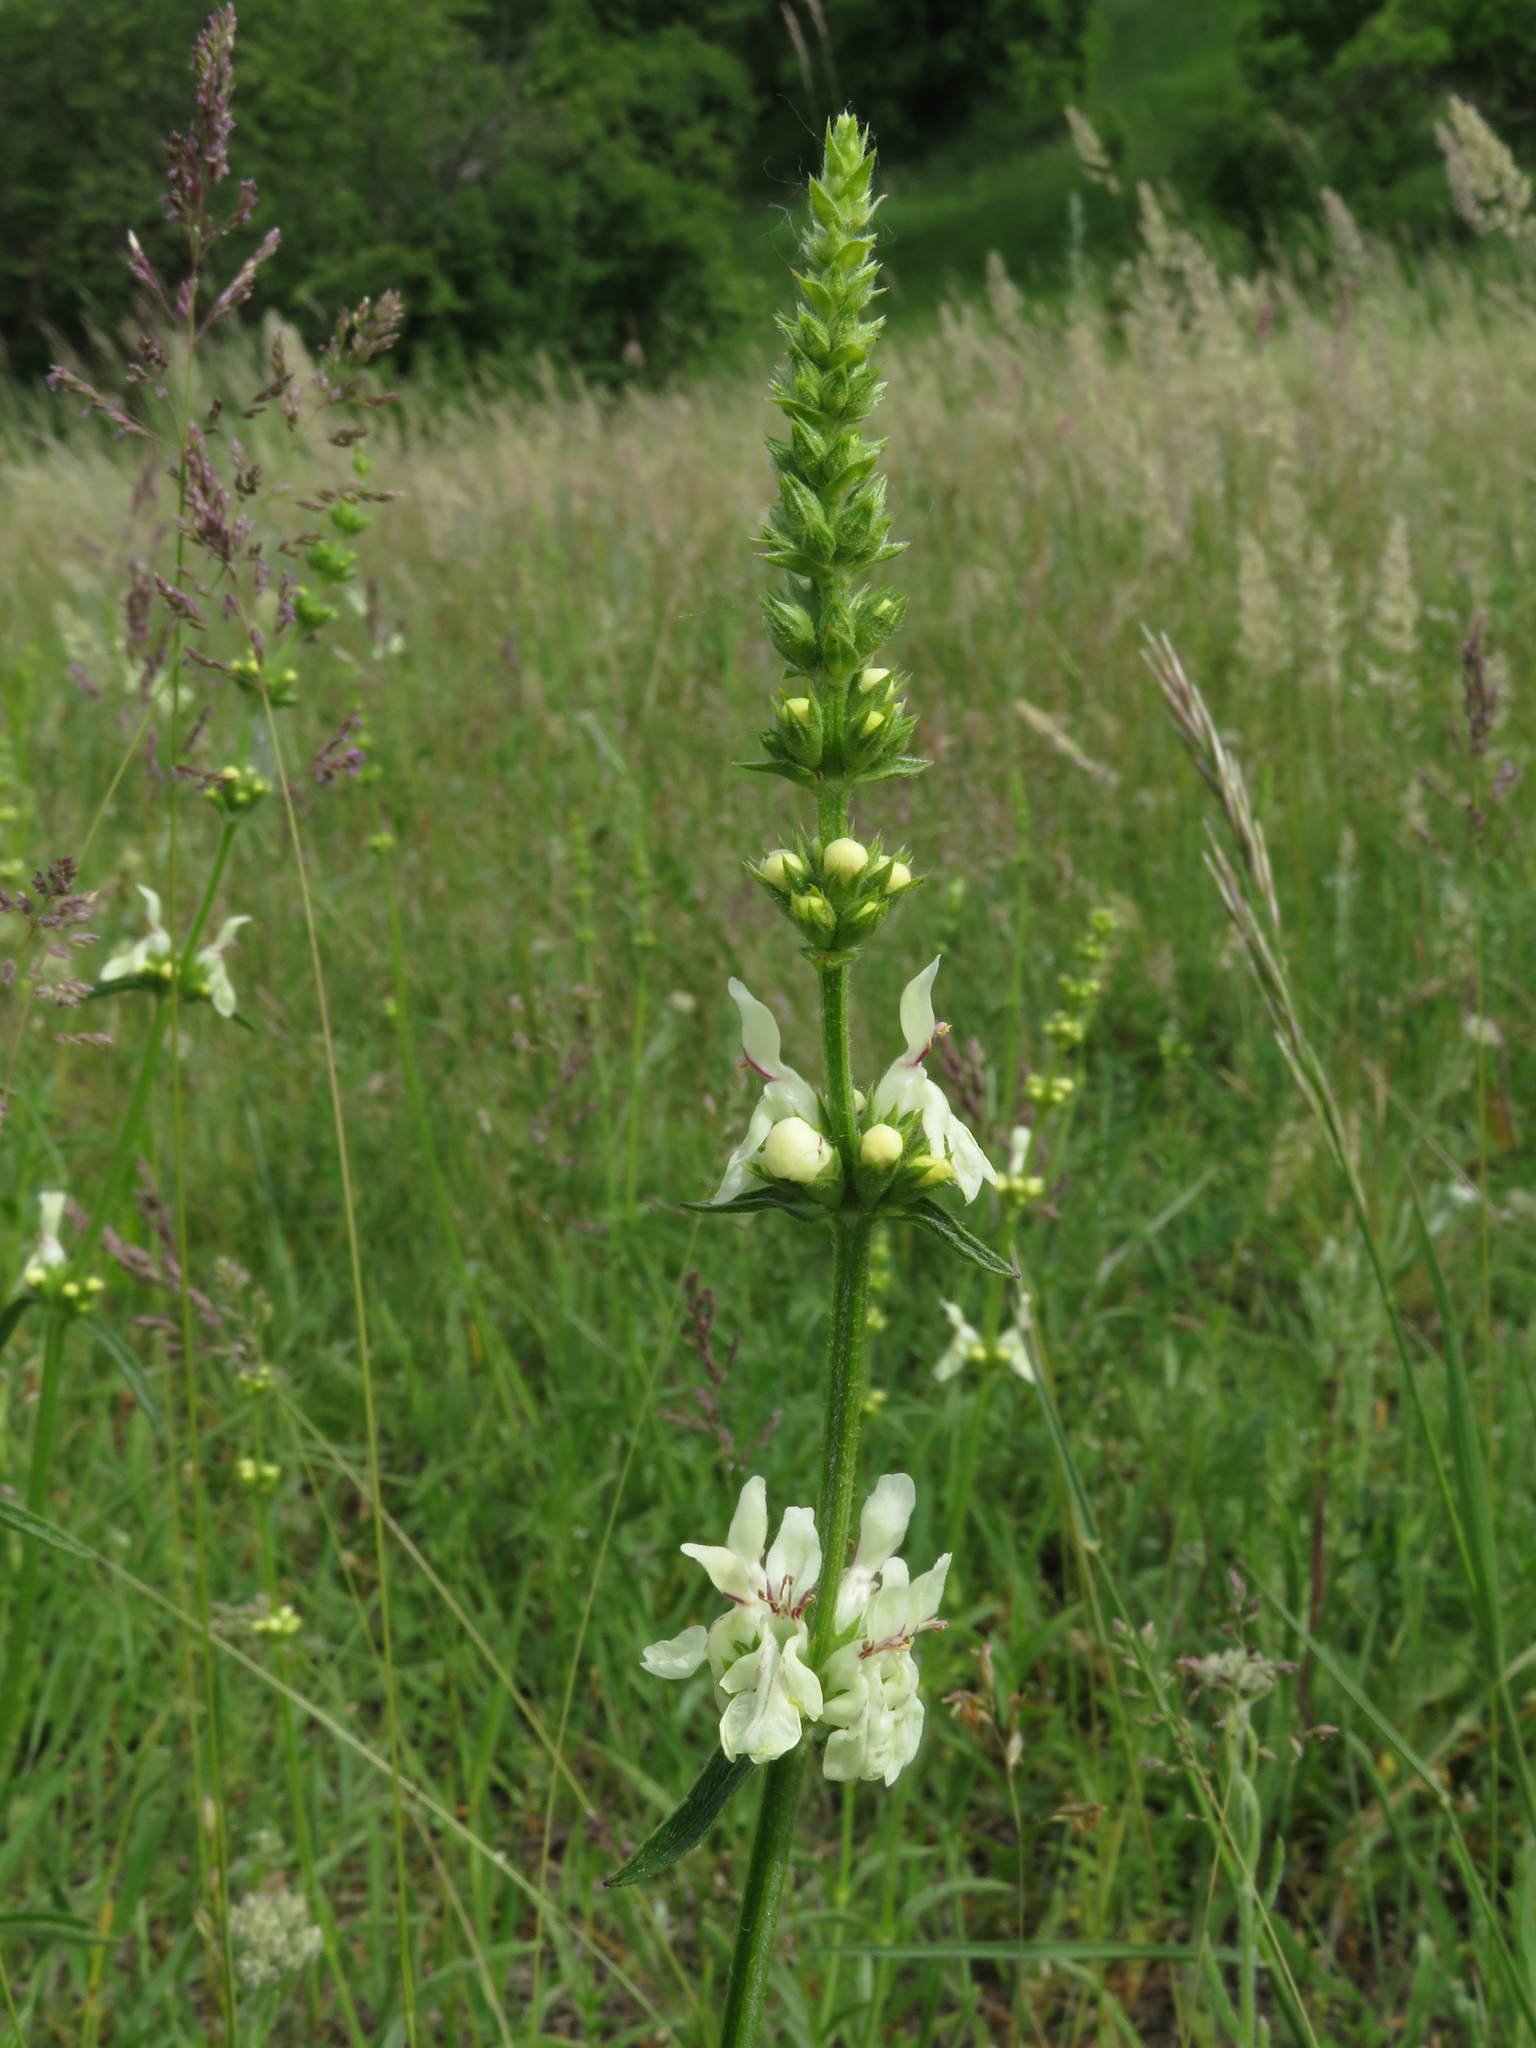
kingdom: Plantae
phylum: Tracheophyta
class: Magnoliopsida
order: Lamiales
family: Lamiaceae
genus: Stachys
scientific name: Stachys recta
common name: Perennial yellow-woundwort
